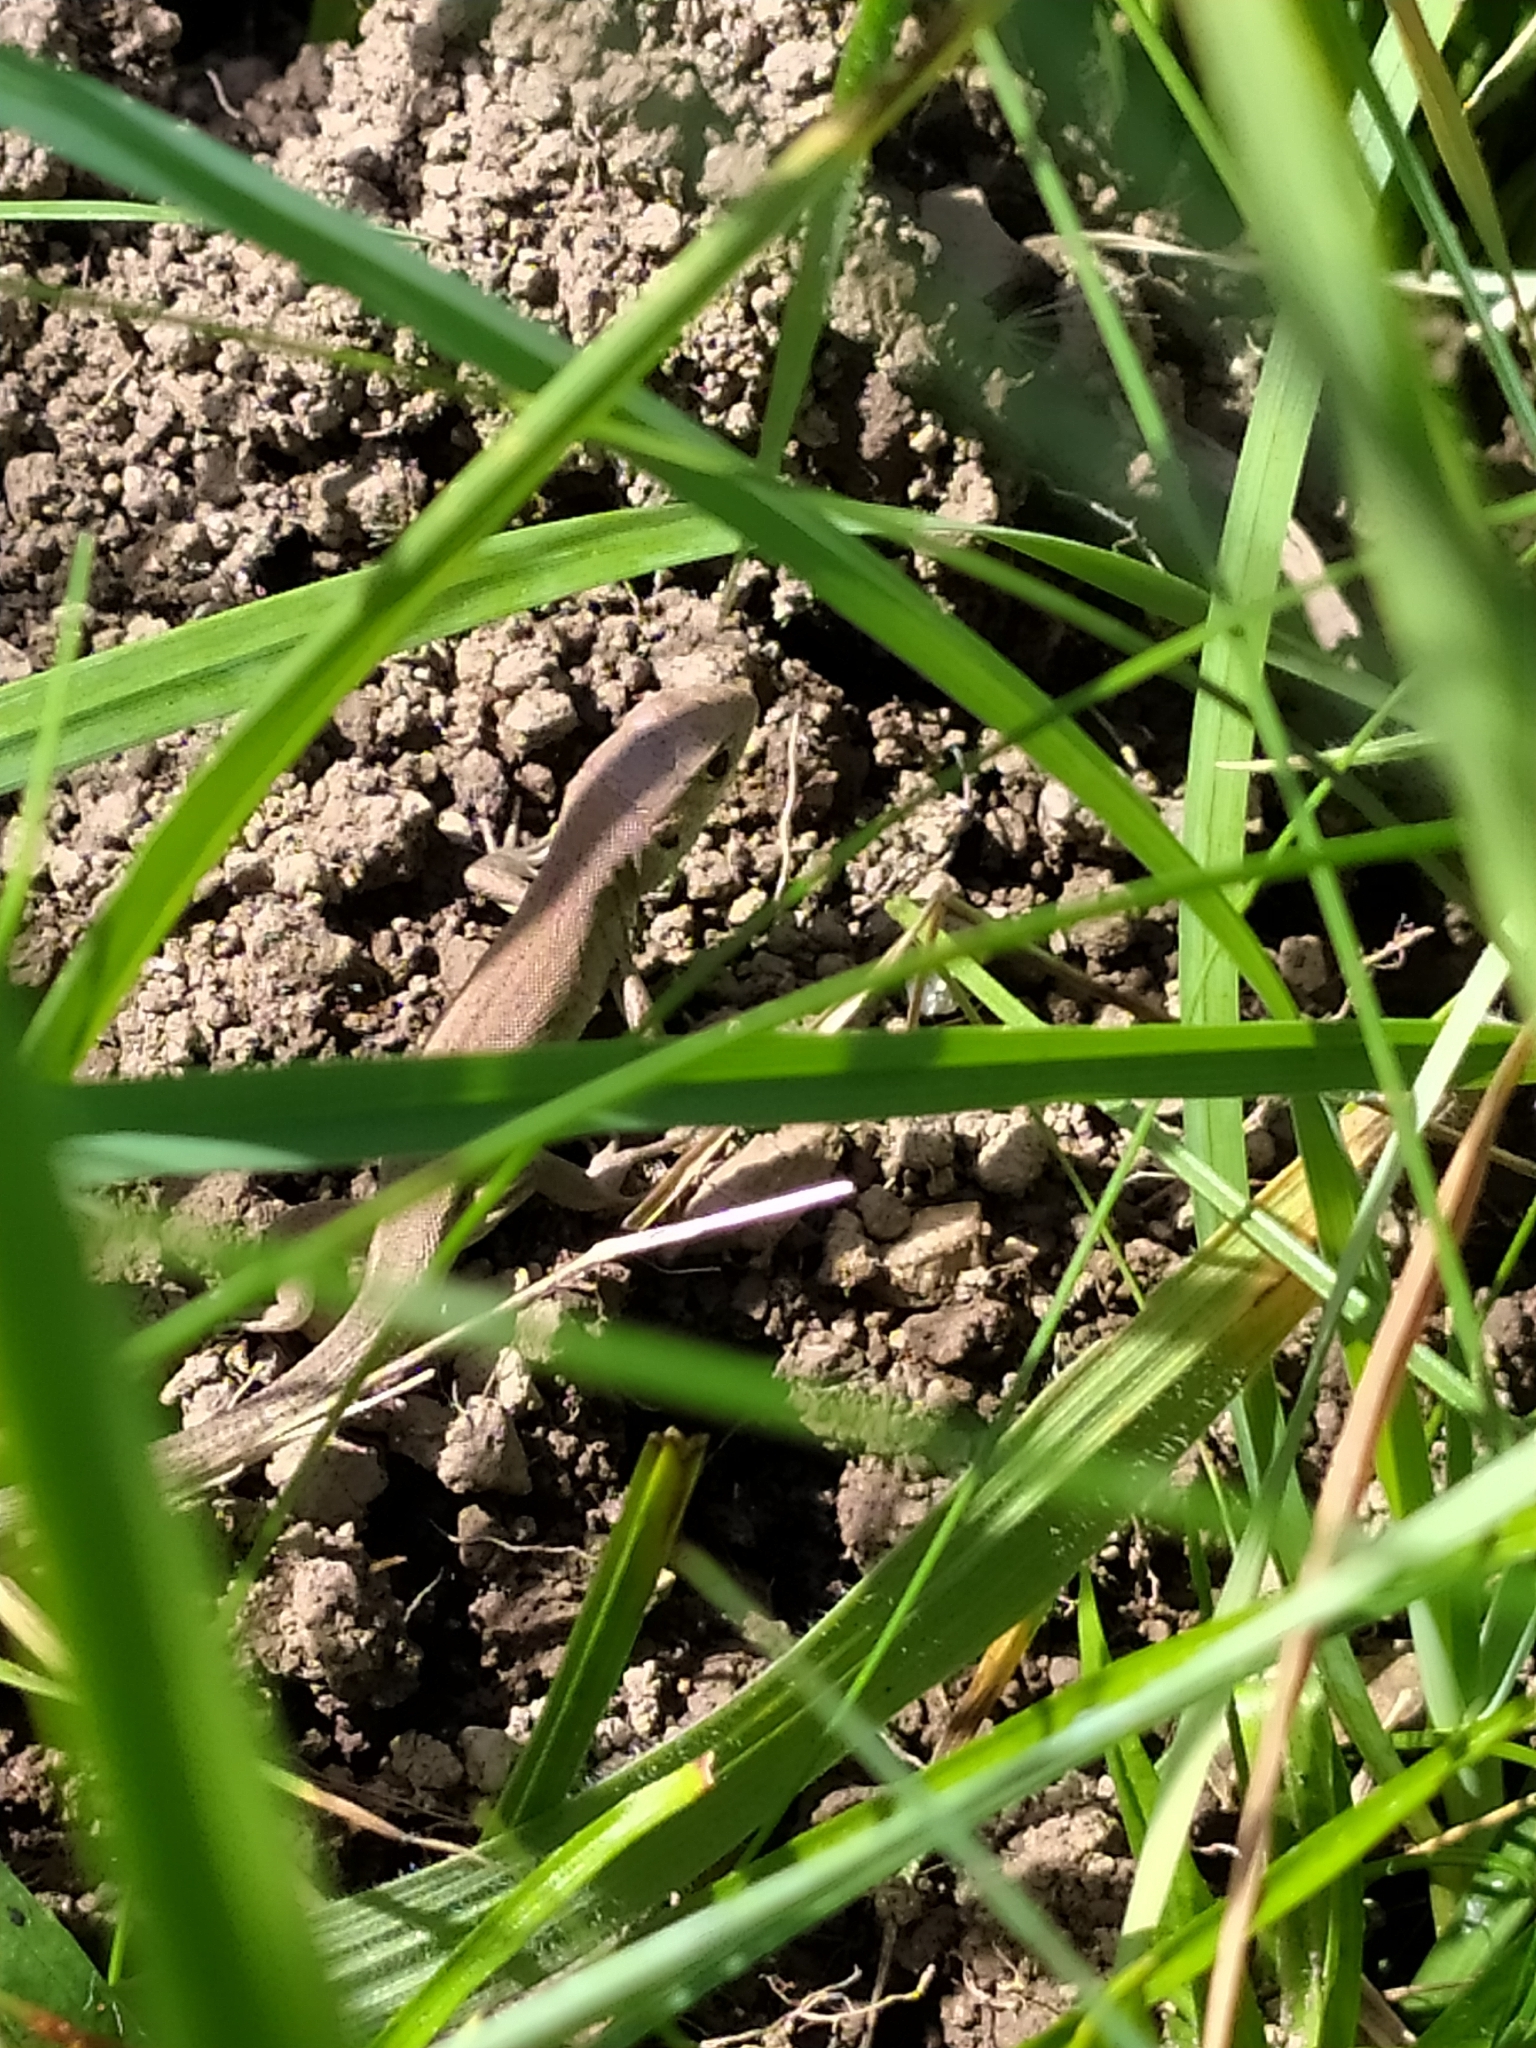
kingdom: Animalia
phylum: Chordata
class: Squamata
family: Lacertidae
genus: Lacerta
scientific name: Lacerta viridis
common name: European green lizard
